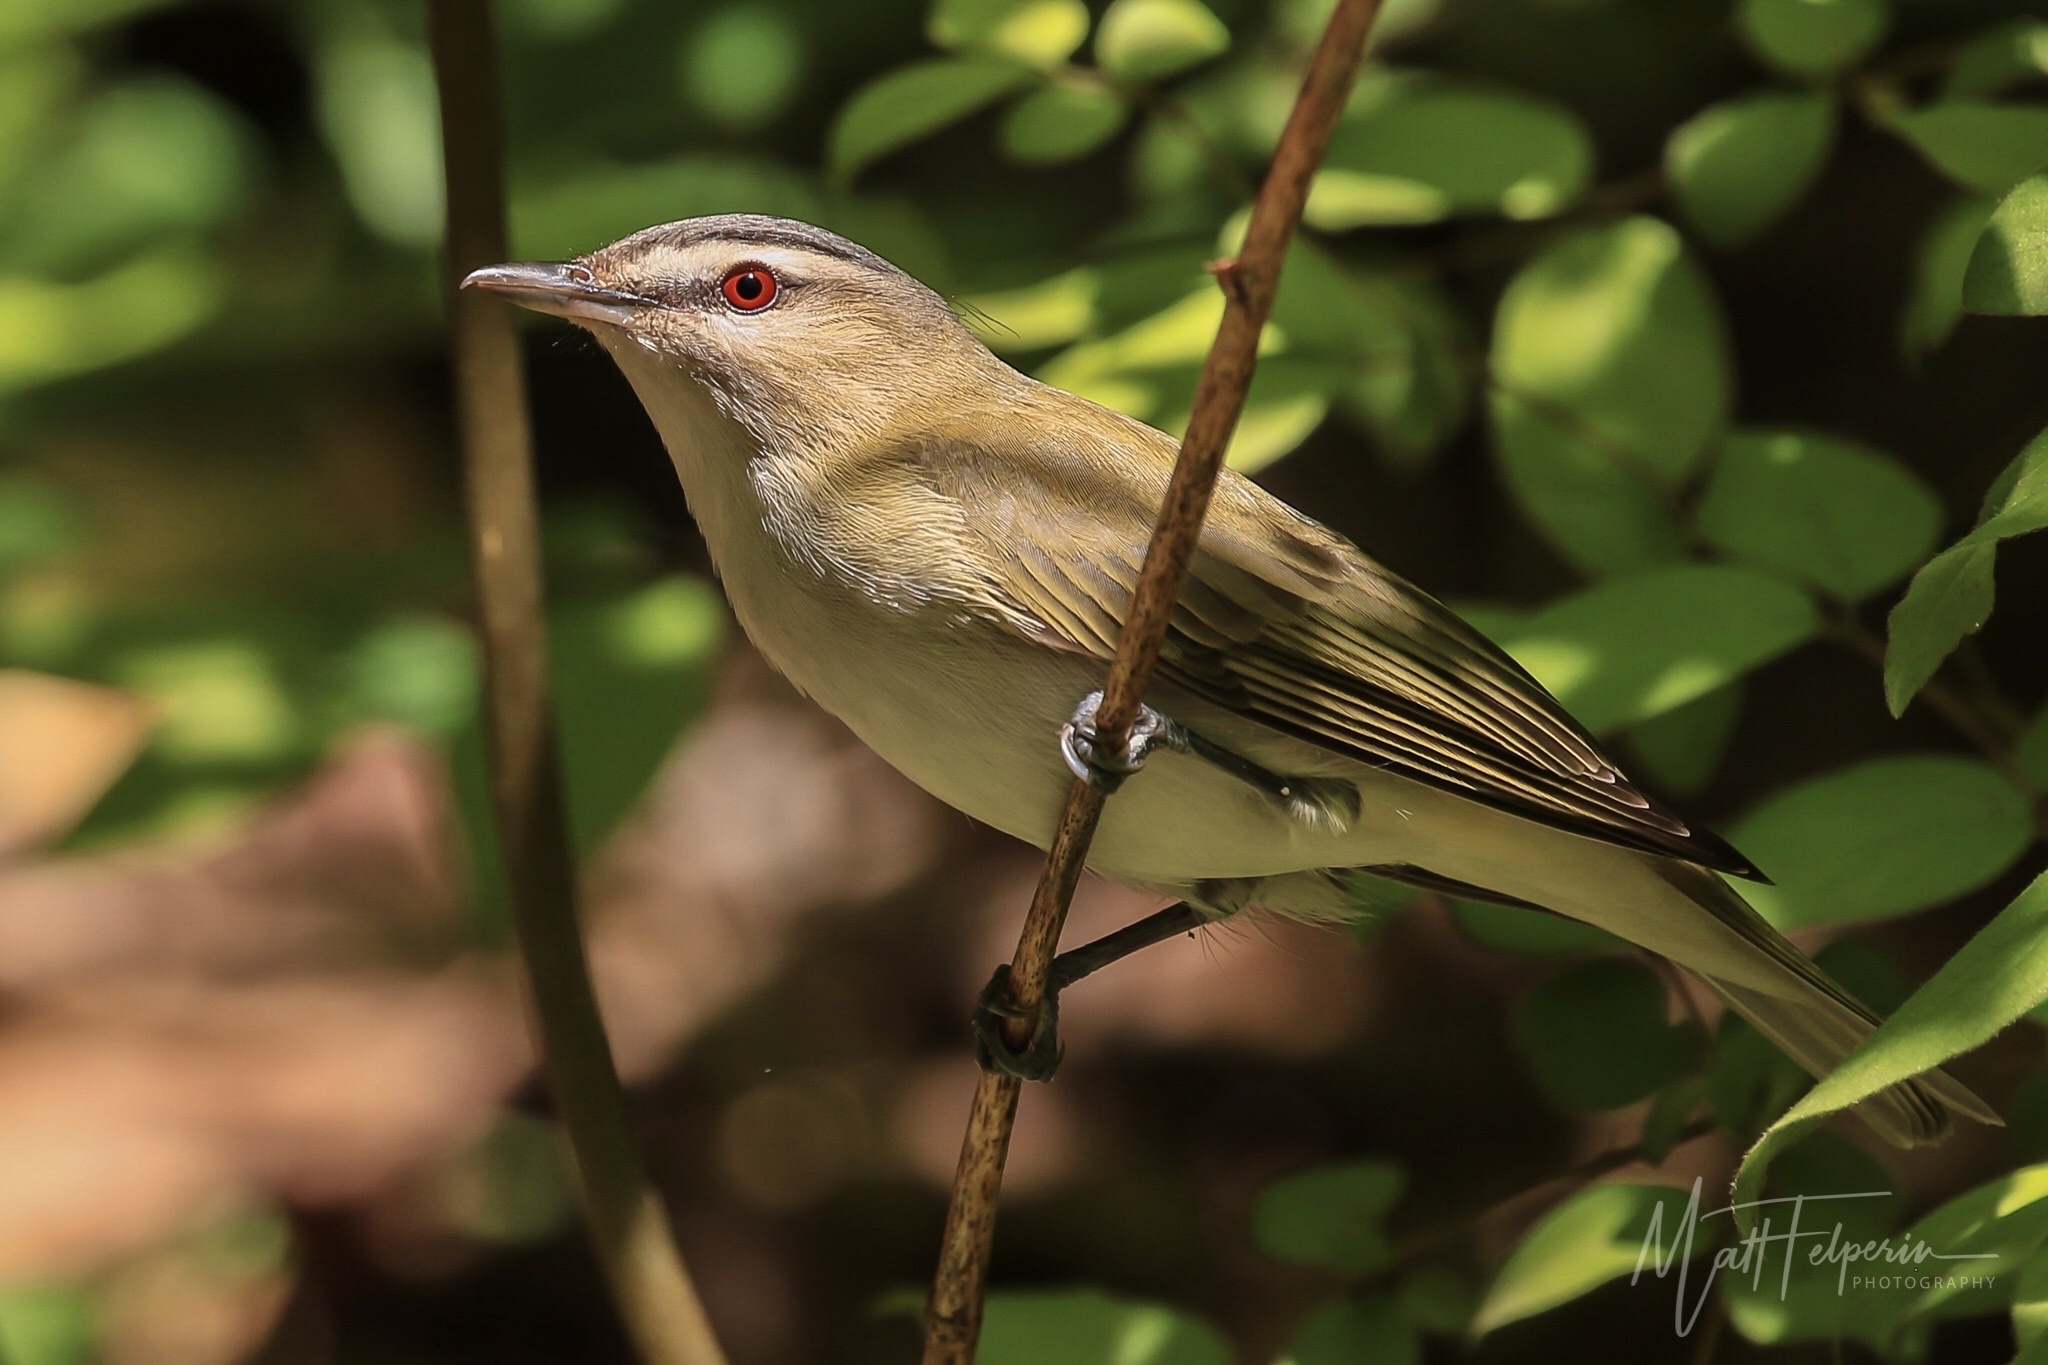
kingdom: Animalia
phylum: Chordata
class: Aves
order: Passeriformes
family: Vireonidae
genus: Vireo
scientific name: Vireo olivaceus
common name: Red-eyed vireo
